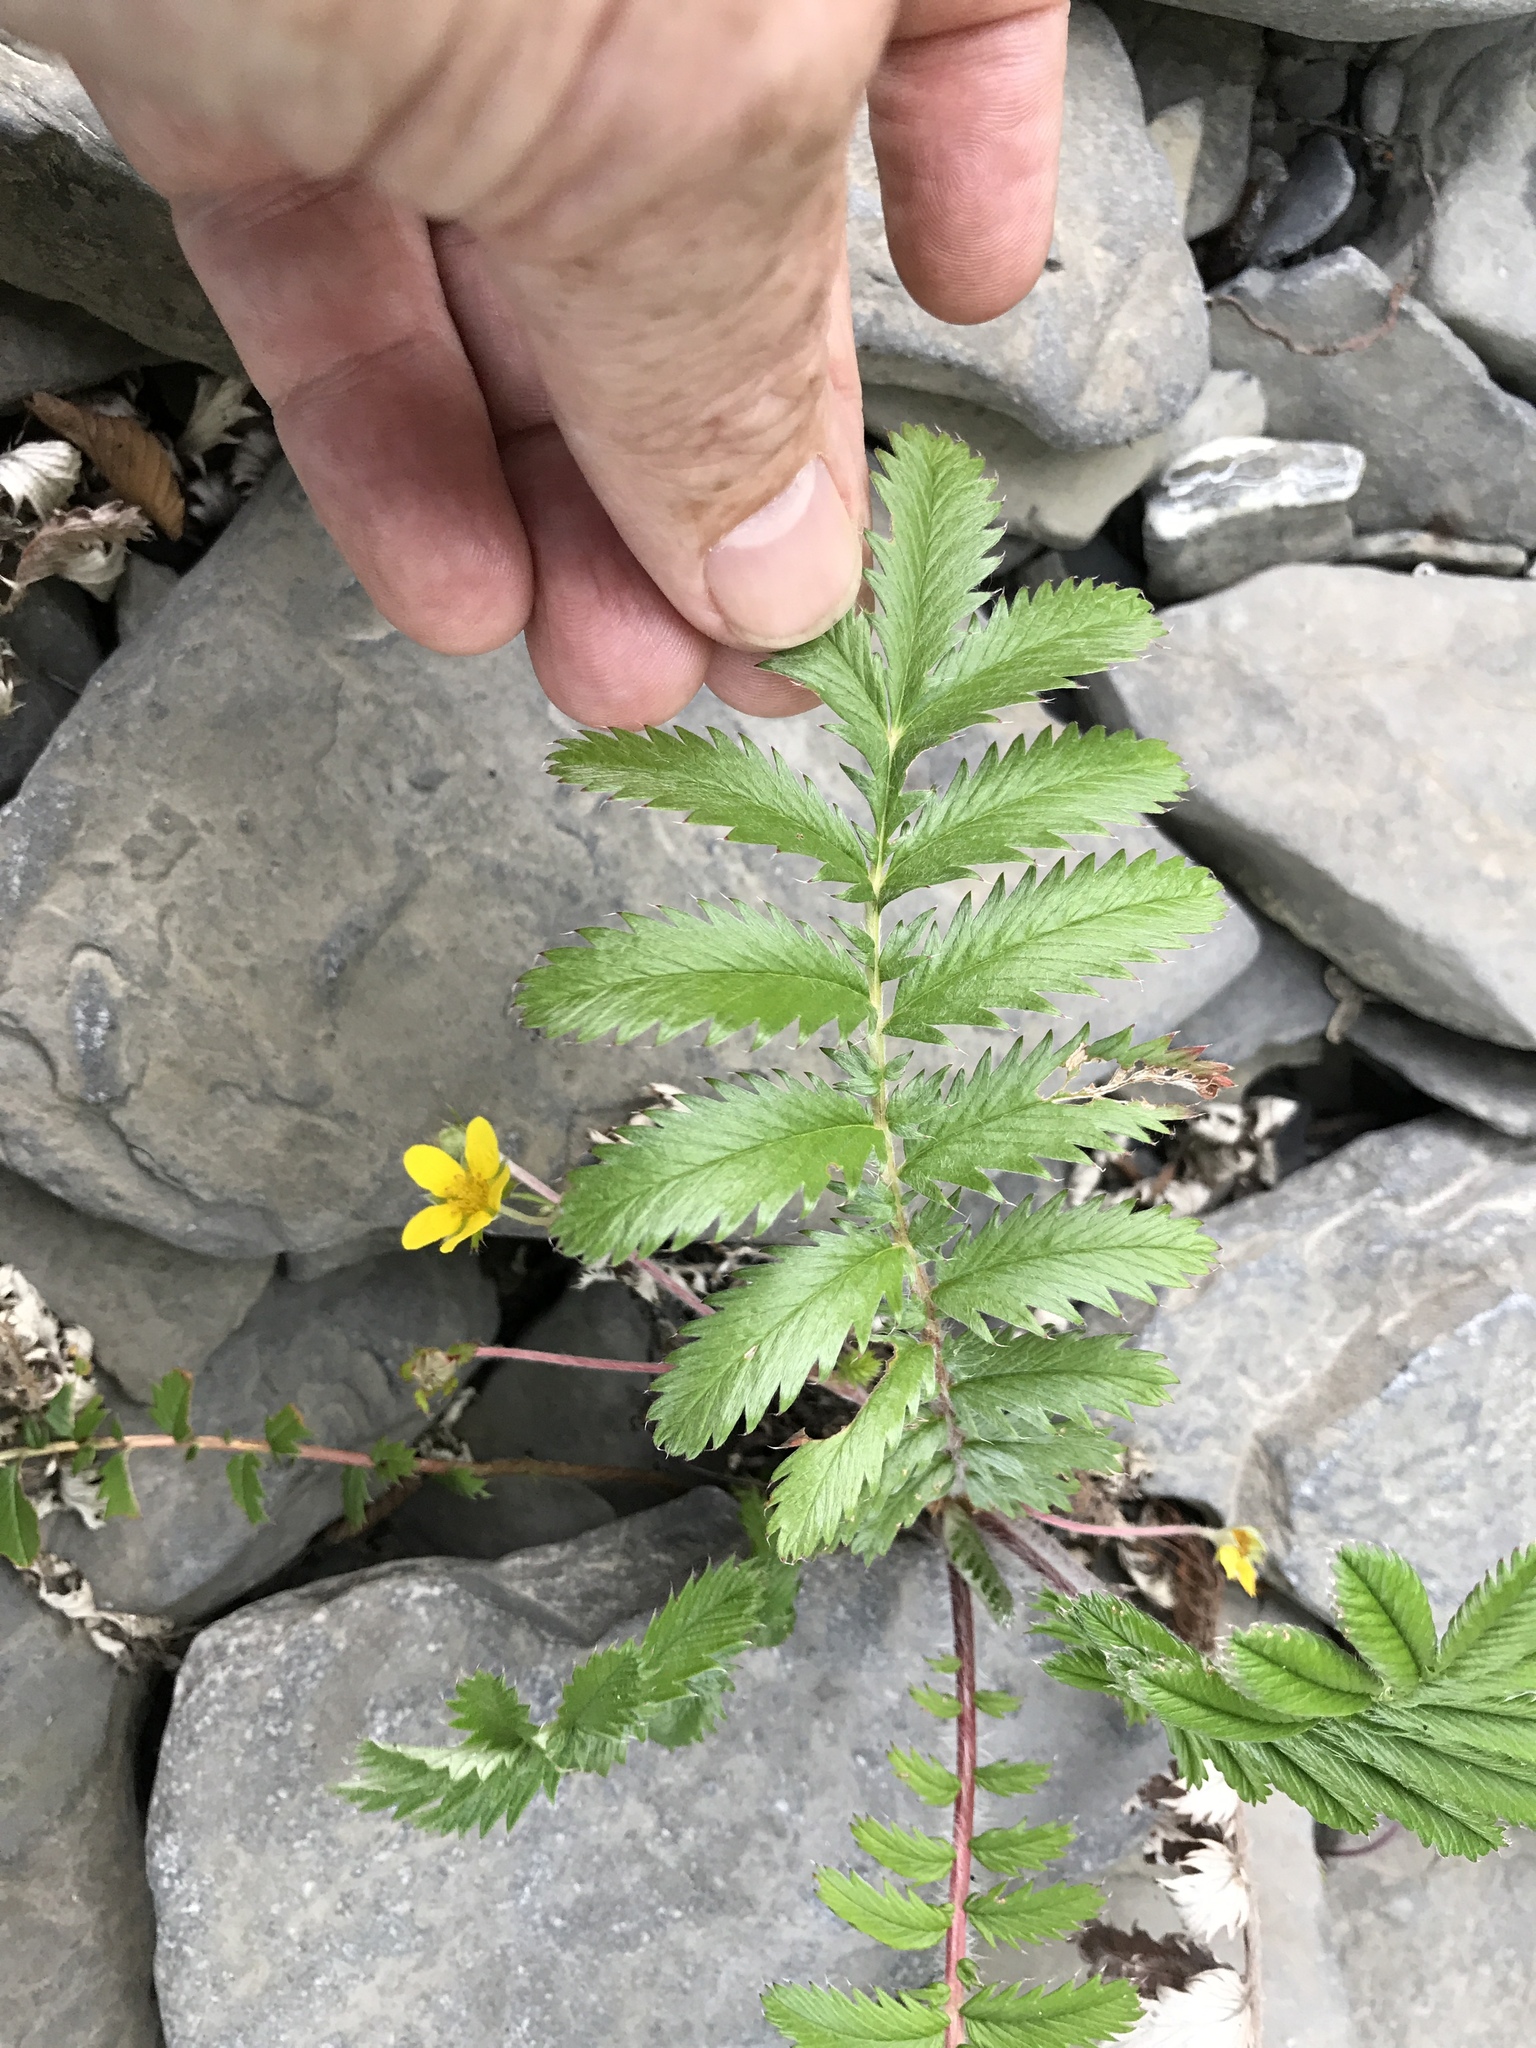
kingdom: Plantae
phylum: Tracheophyta
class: Magnoliopsida
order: Rosales
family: Rosaceae
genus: Argentina
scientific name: Argentina anserina
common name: Common silverweed
